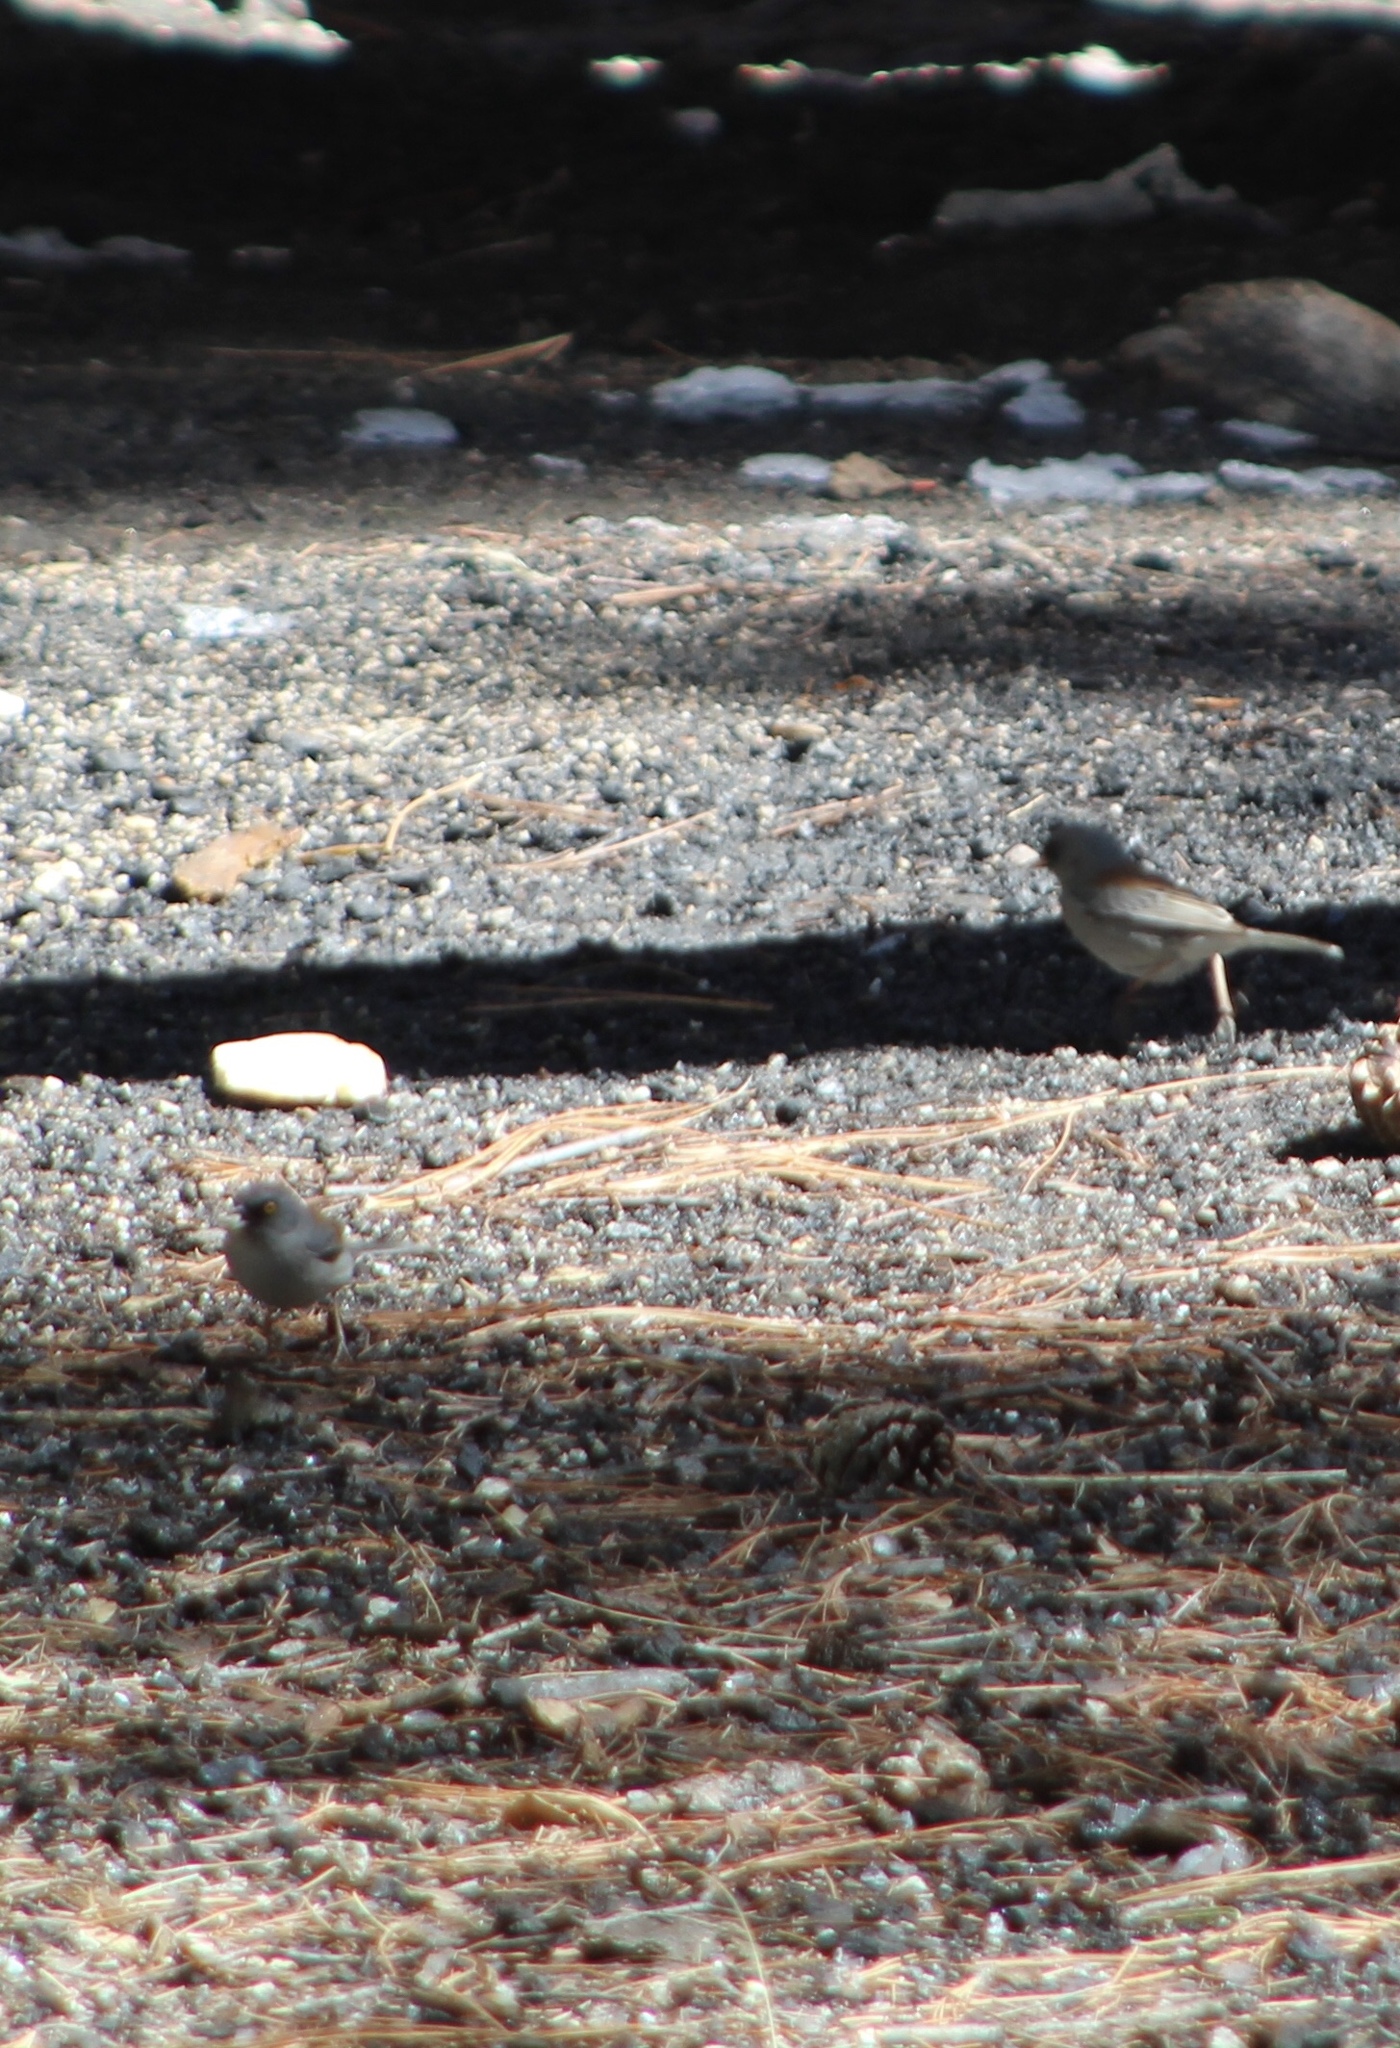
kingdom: Animalia
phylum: Chordata
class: Aves
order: Passeriformes
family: Passerellidae
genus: Junco
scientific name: Junco phaeonotus
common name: Yellow-eyed junco
